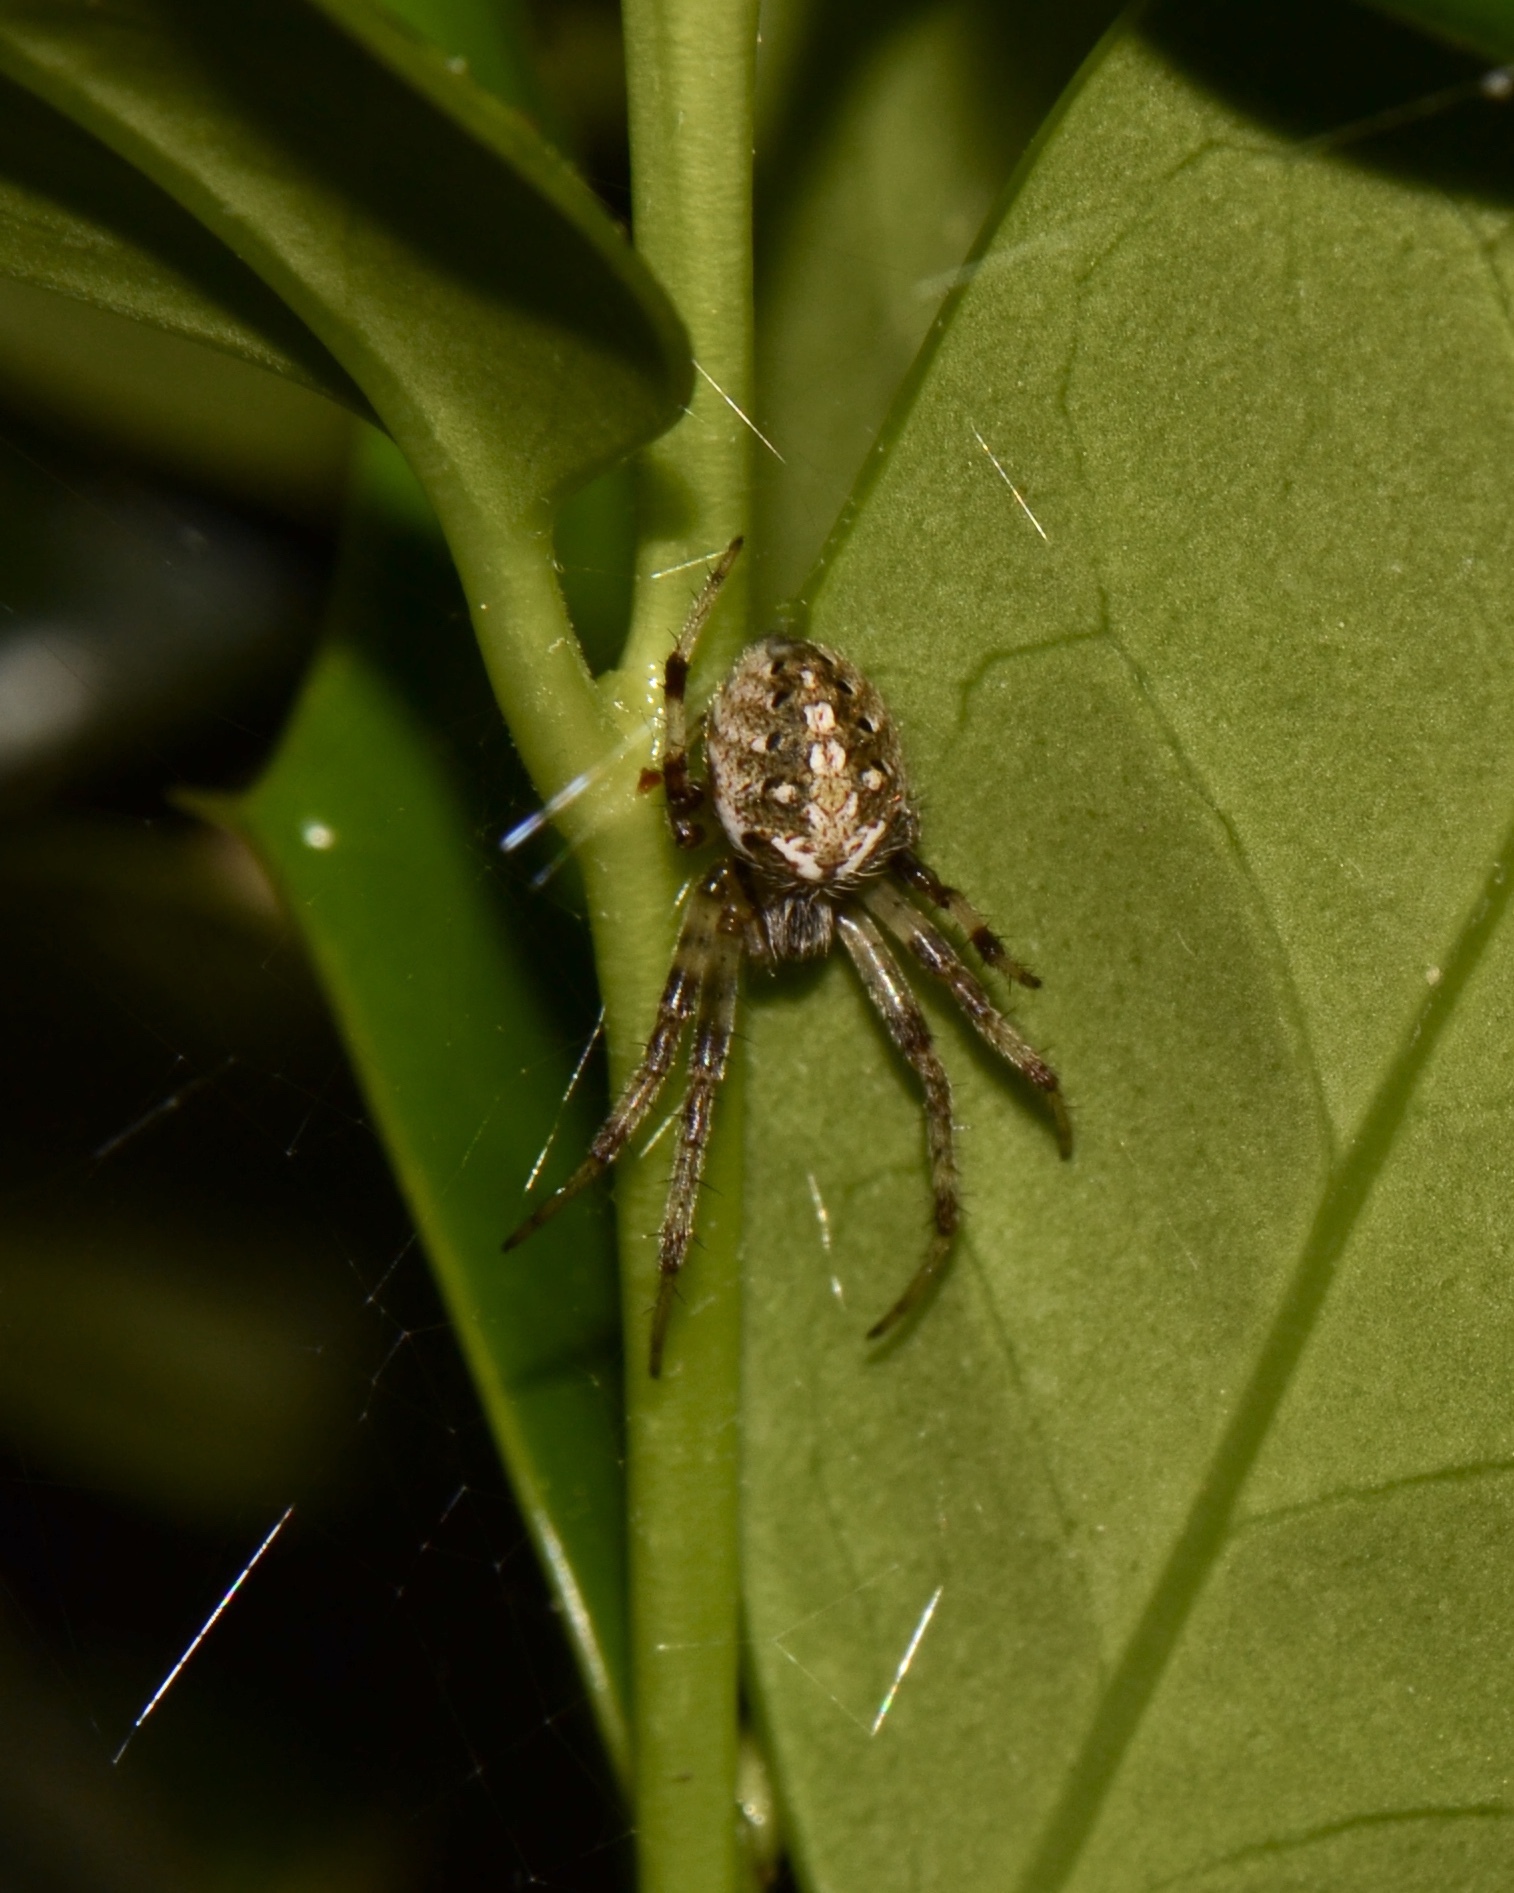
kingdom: Animalia
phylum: Arthropoda
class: Arachnida
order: Araneae
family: Araneidae
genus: Neoscona
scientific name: Neoscona arabesca
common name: Orb weavers
